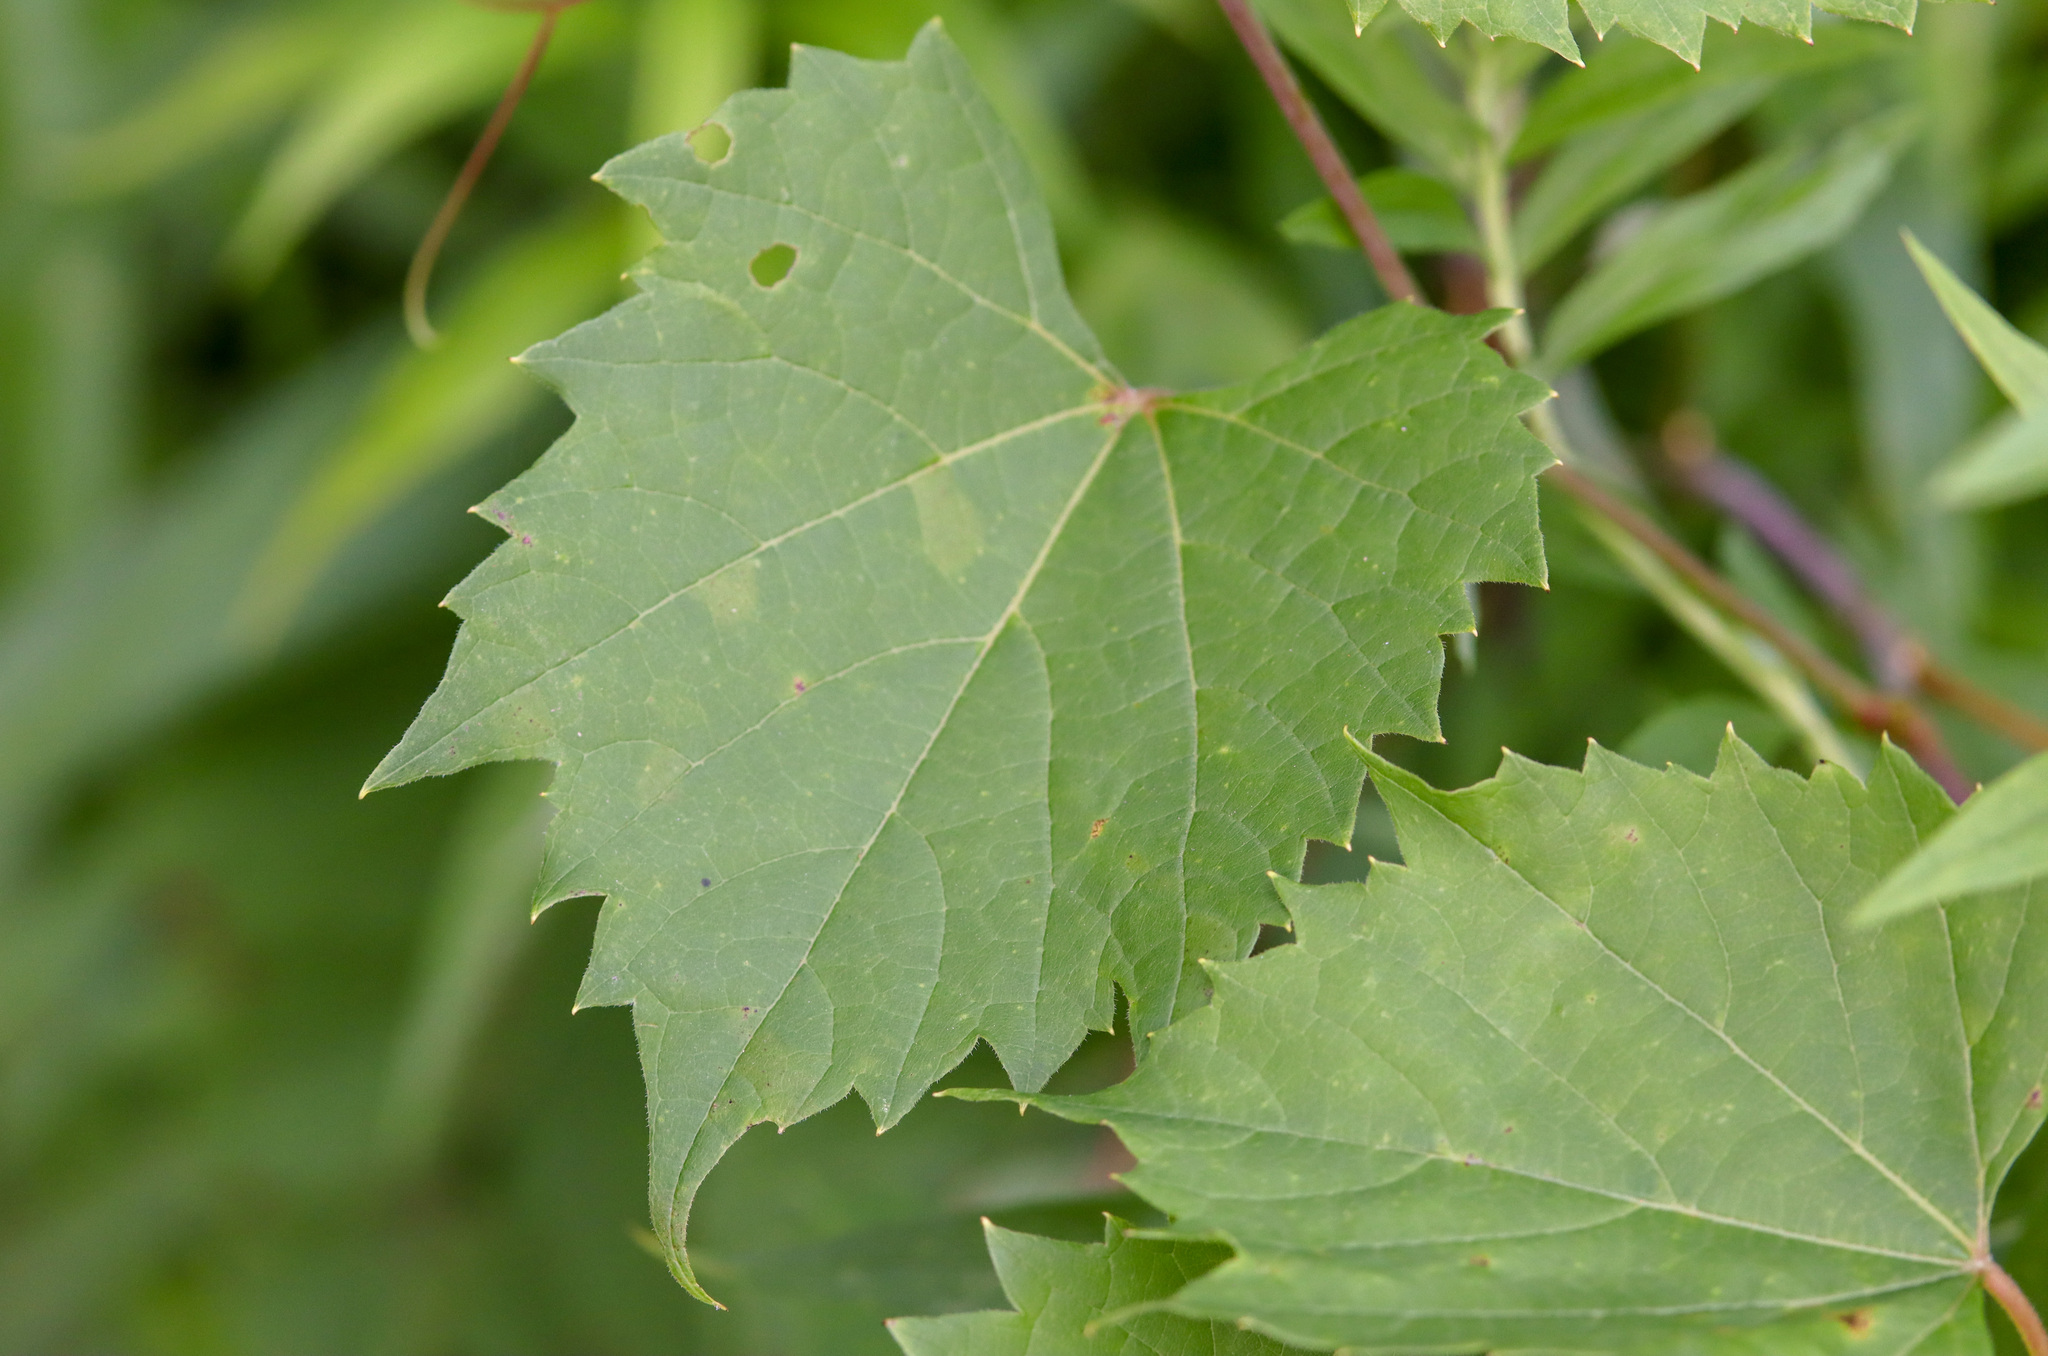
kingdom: Plantae
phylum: Tracheophyta
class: Magnoliopsida
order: Vitales
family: Vitaceae
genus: Vitis
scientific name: Vitis riparia
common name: Frost grape
